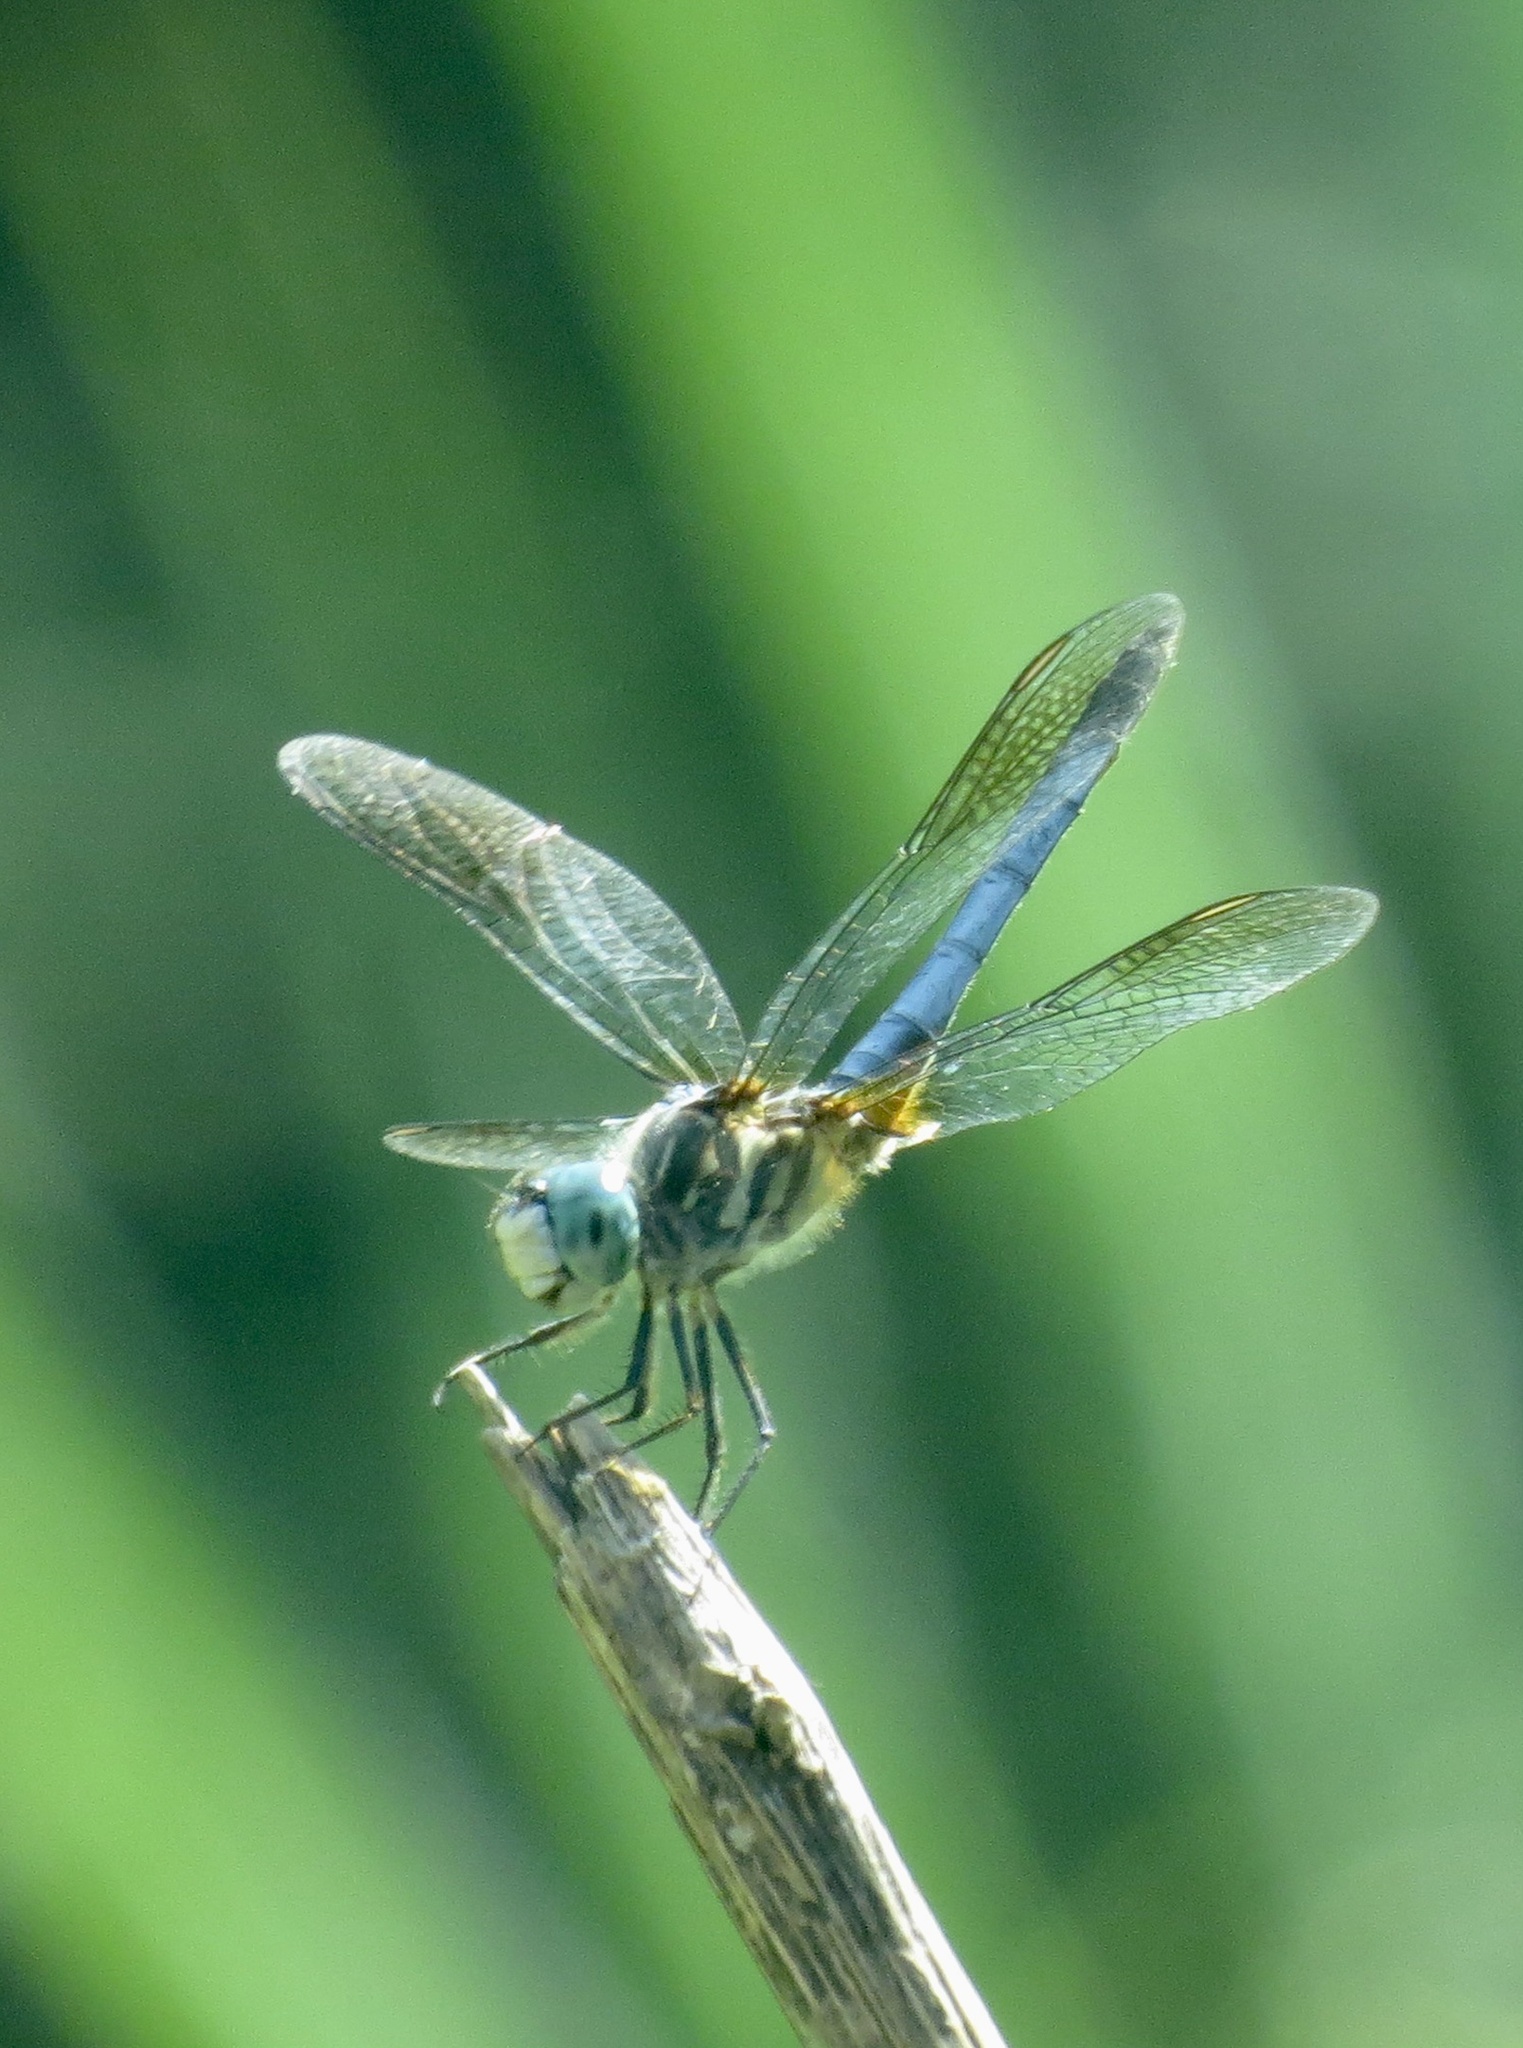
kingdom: Animalia
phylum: Arthropoda
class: Insecta
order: Odonata
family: Libellulidae
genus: Pachydiplax
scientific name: Pachydiplax longipennis
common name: Blue dasher
